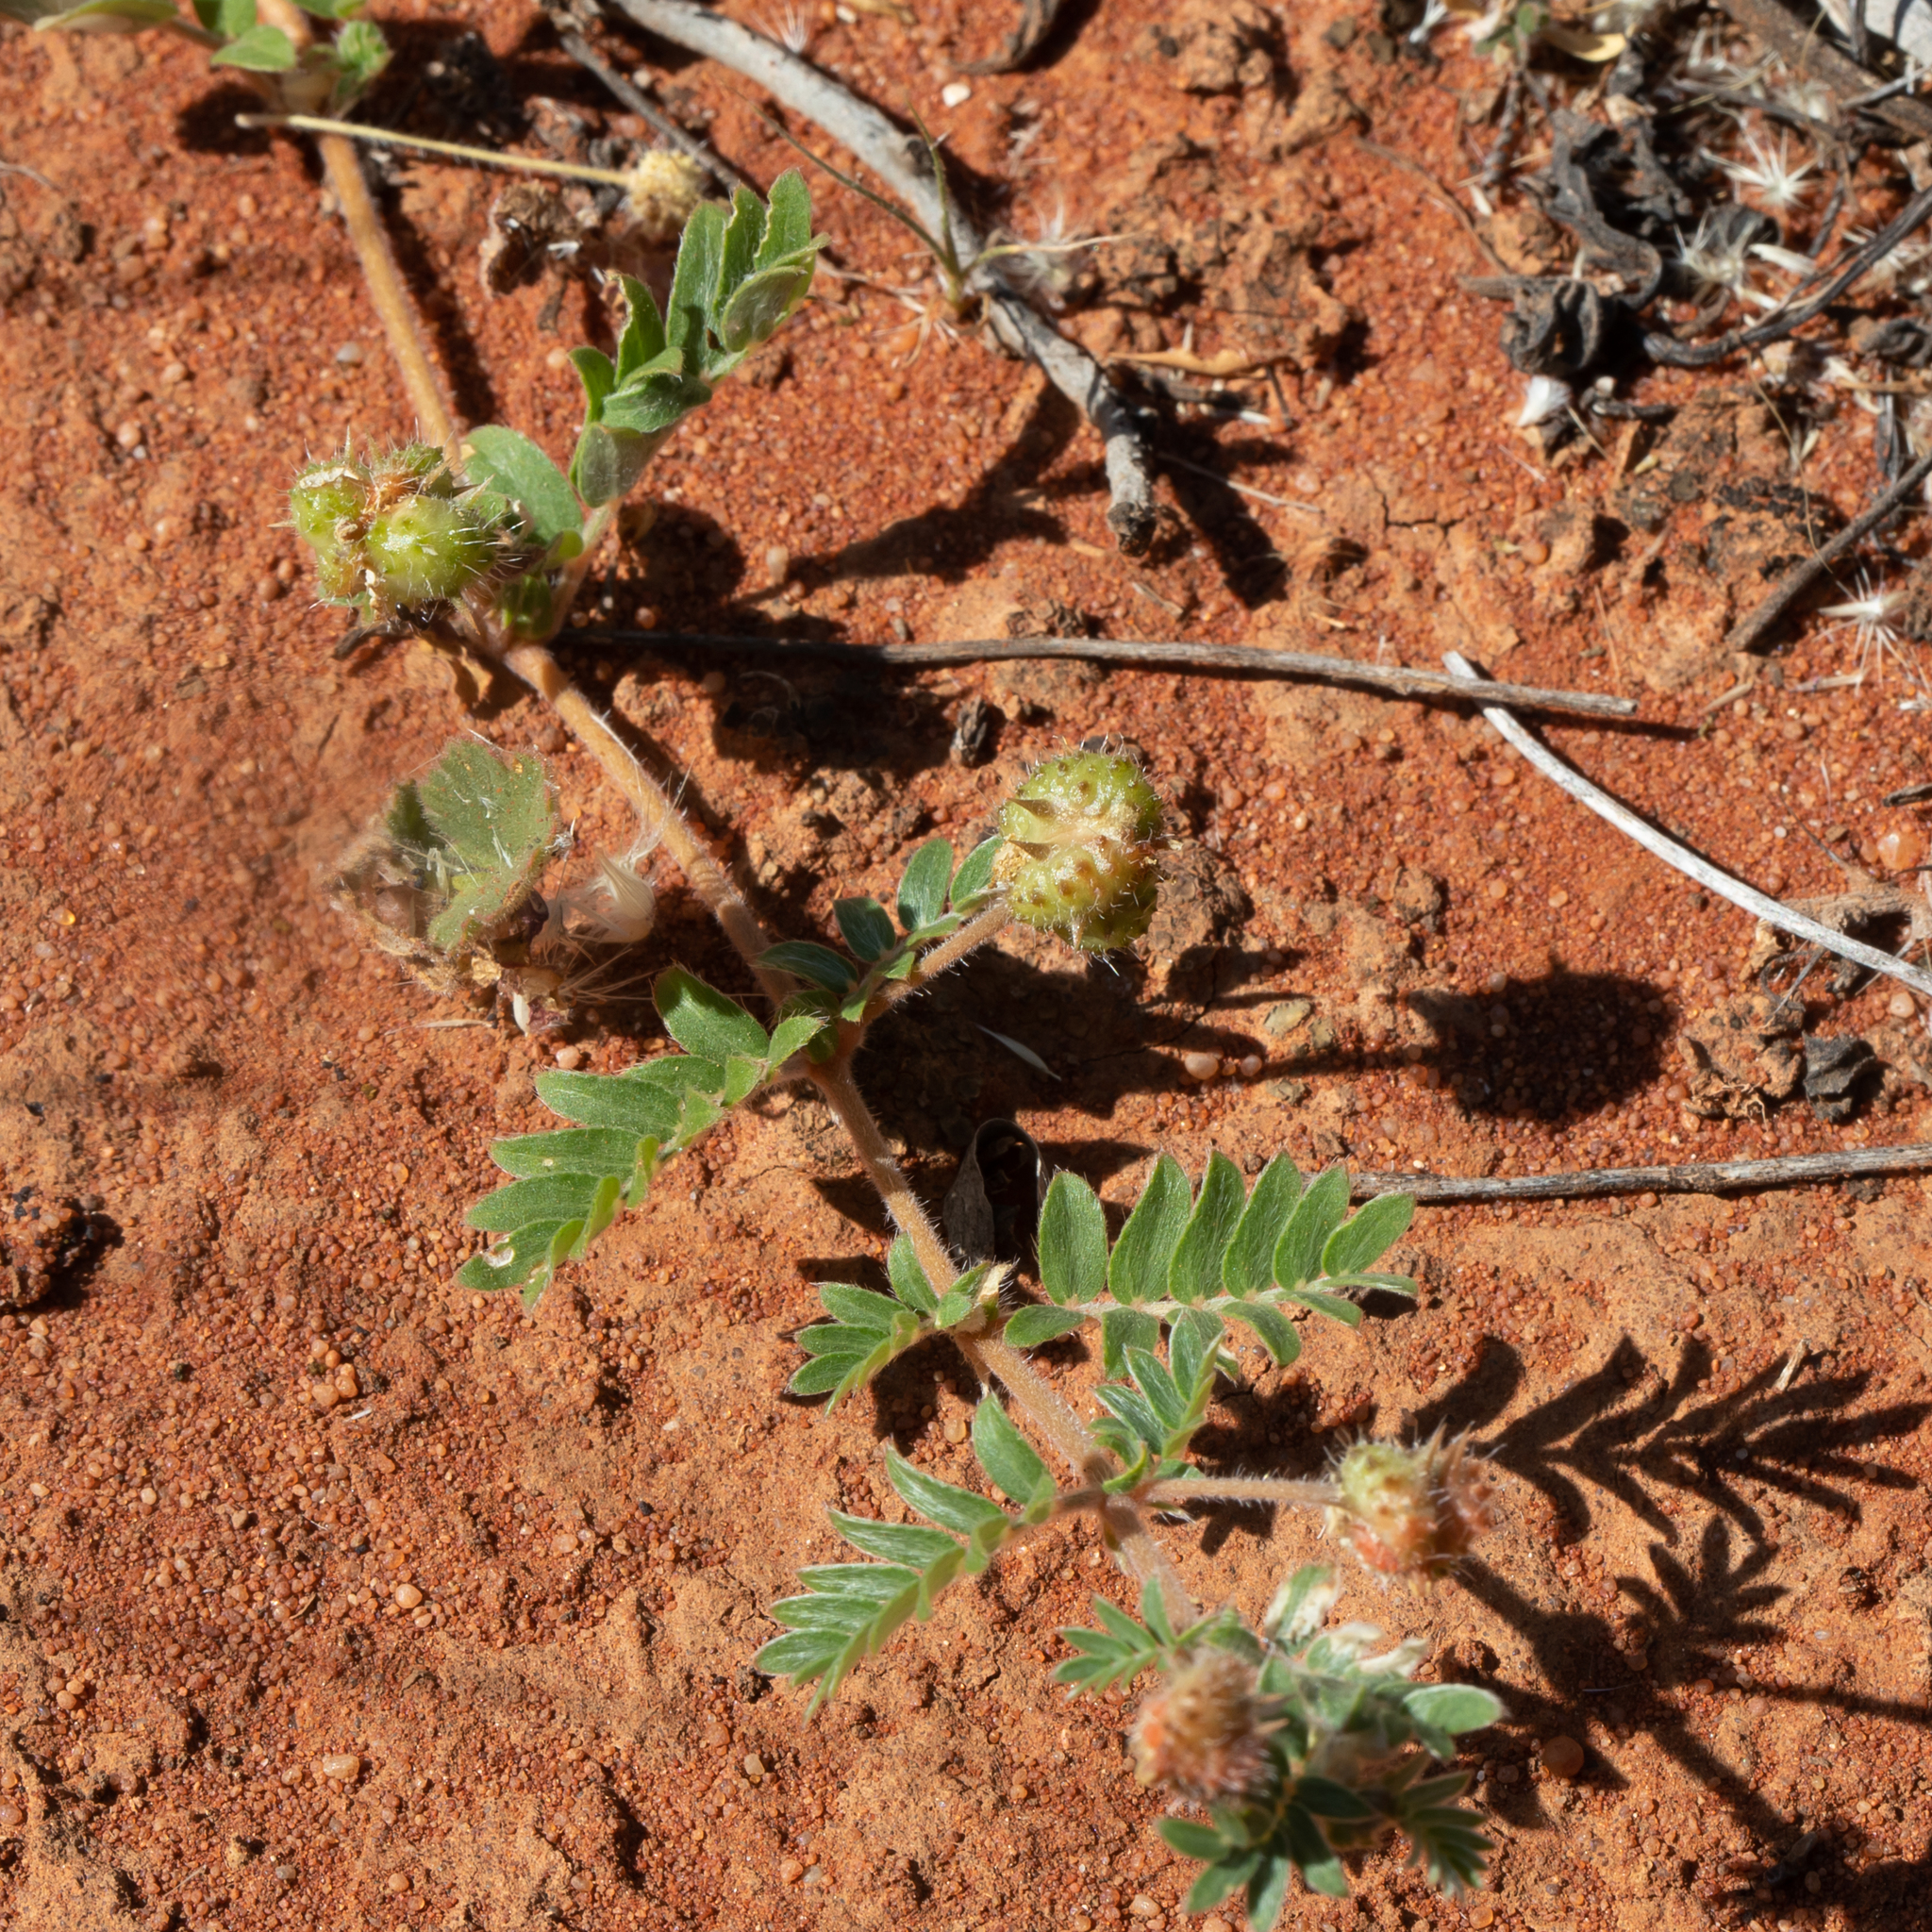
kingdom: Plantae
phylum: Tracheophyta
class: Magnoliopsida
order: Zygophyllales
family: Zygophyllaceae
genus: Tribulus
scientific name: Tribulus terrestris
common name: Puncturevine
